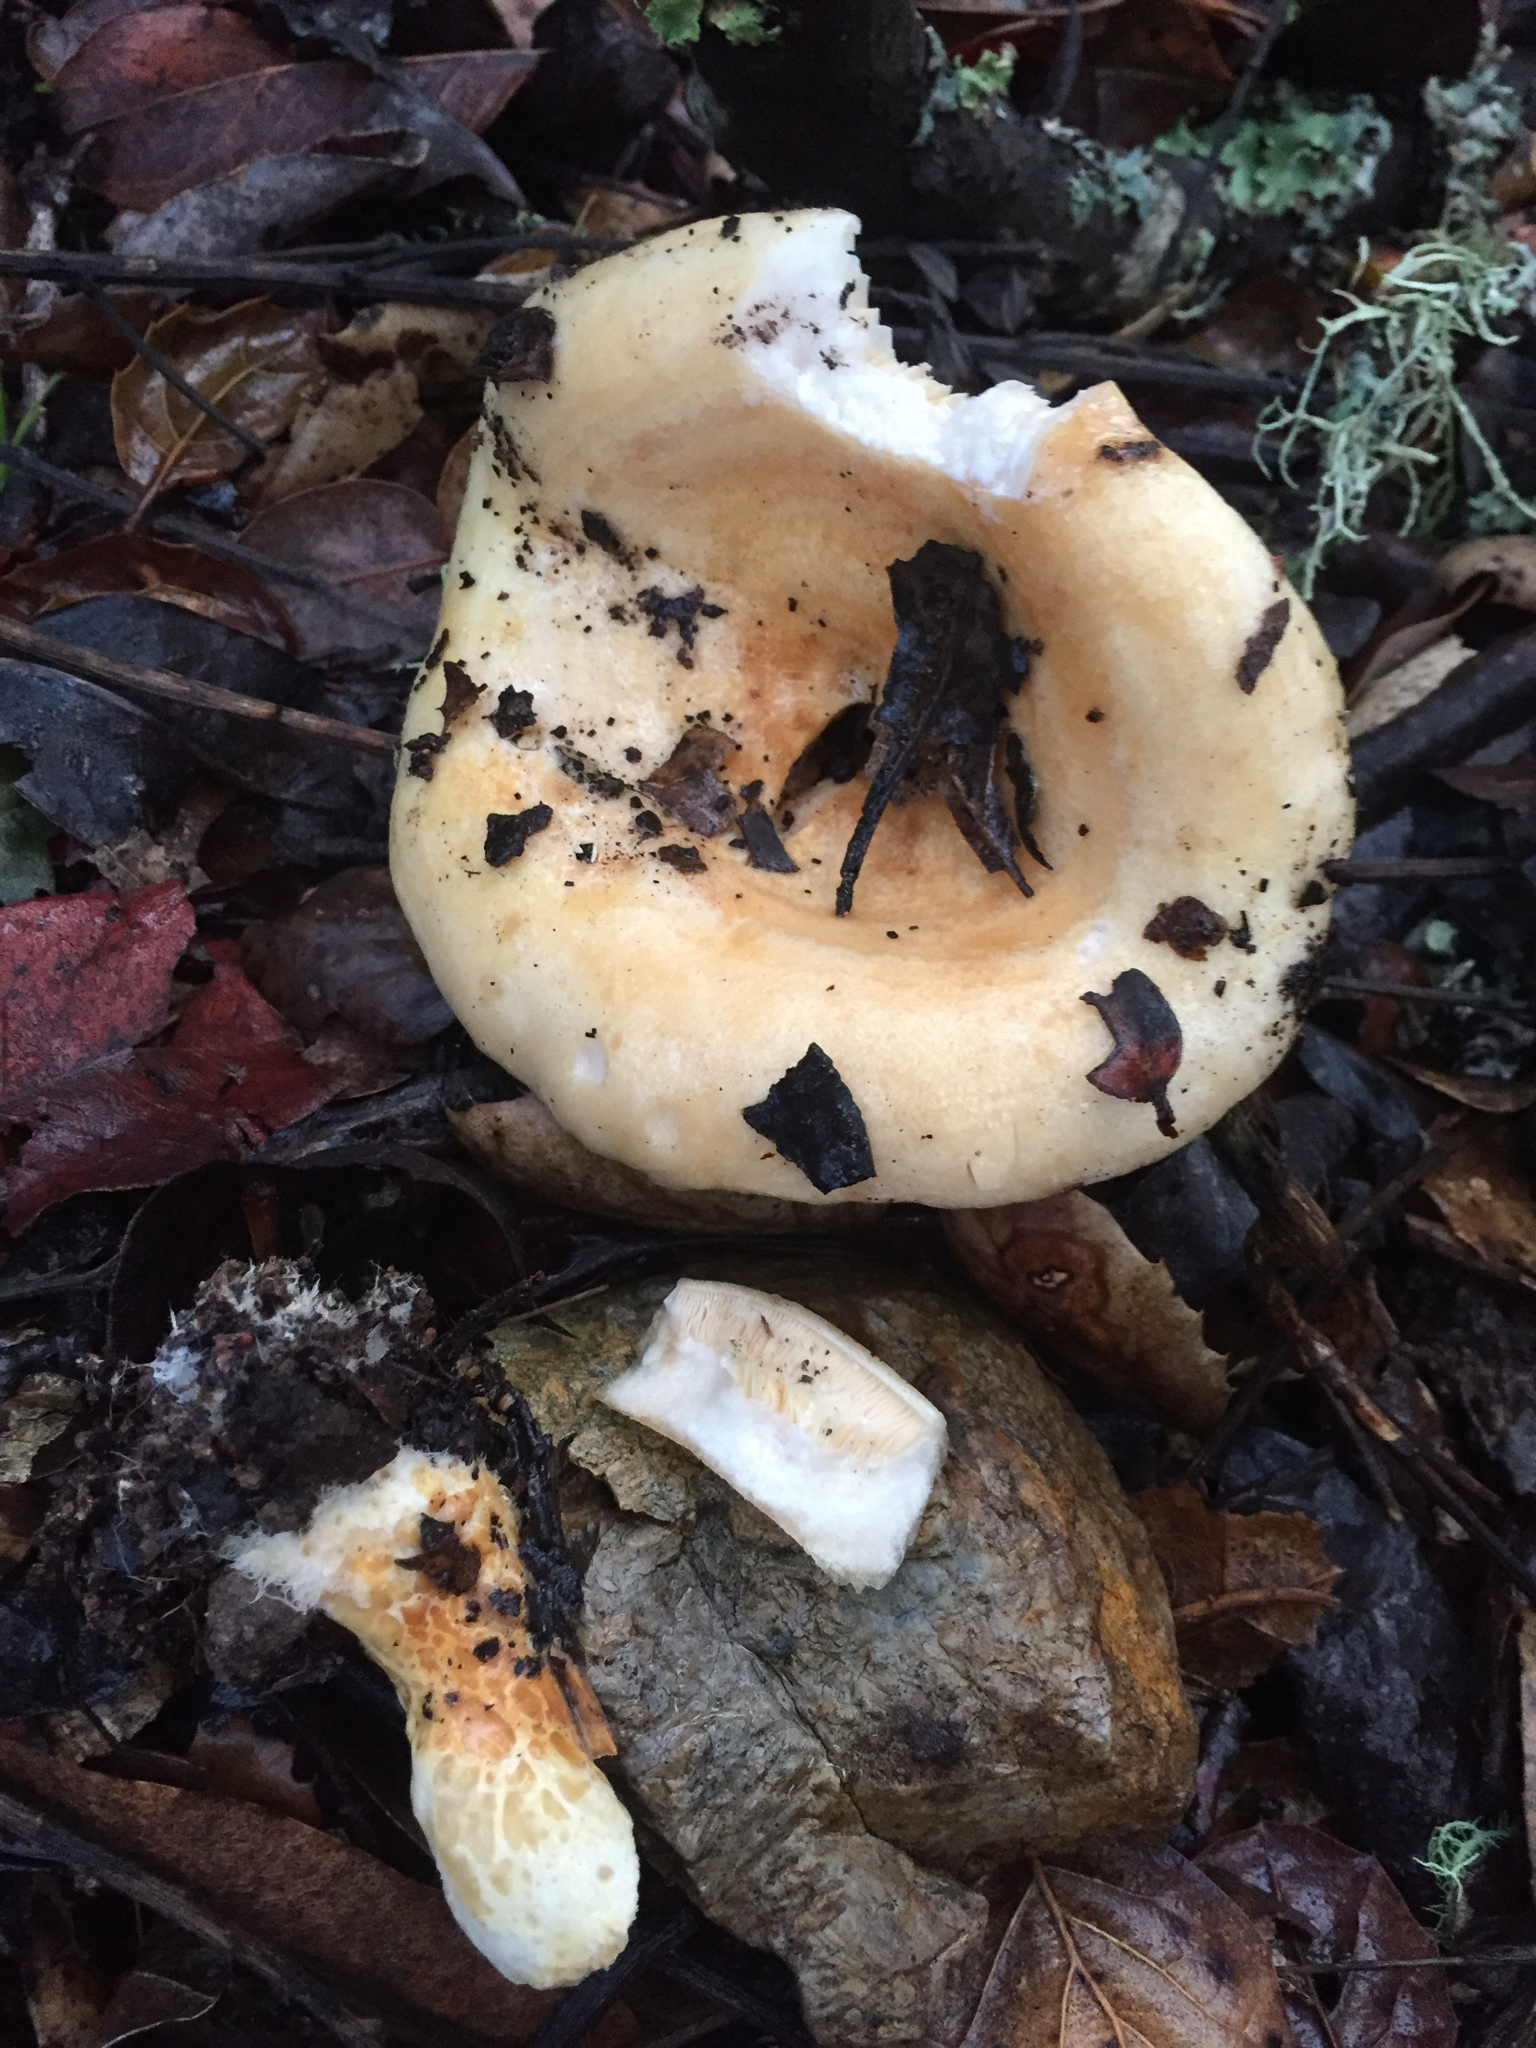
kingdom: Fungi
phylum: Basidiomycota
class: Agaricomycetes
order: Russulales
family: Russulaceae
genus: Lactarius
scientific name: Lactarius alnicola
